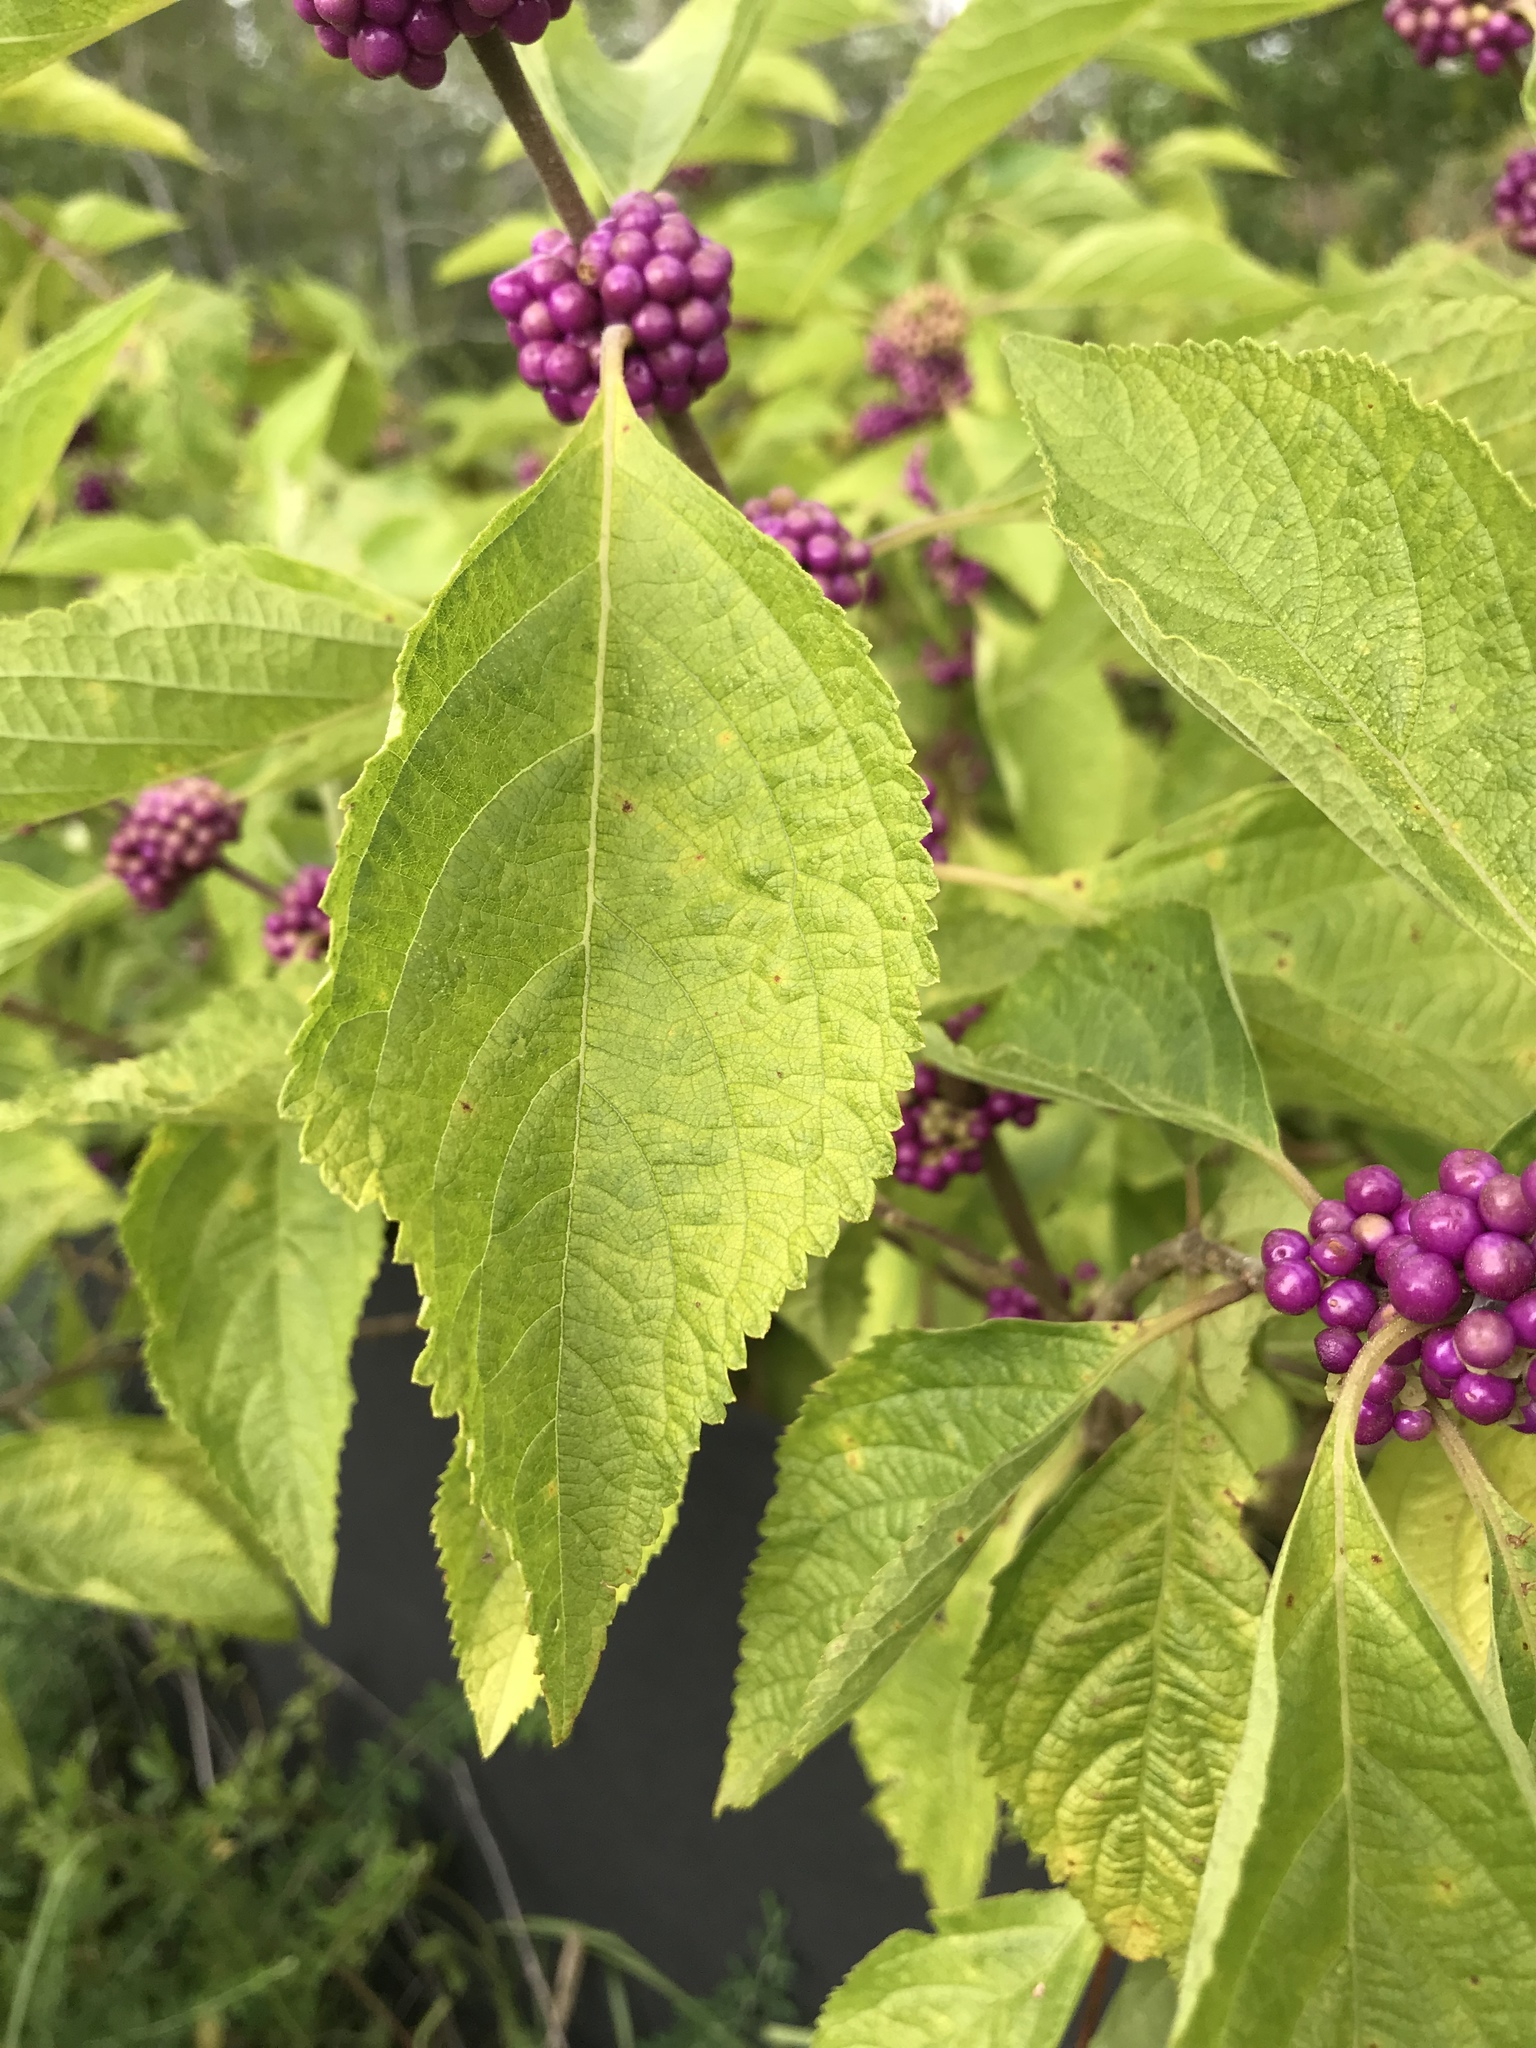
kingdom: Plantae
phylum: Tracheophyta
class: Magnoliopsida
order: Lamiales
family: Lamiaceae
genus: Callicarpa
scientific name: Callicarpa americana
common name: American beautyberry
